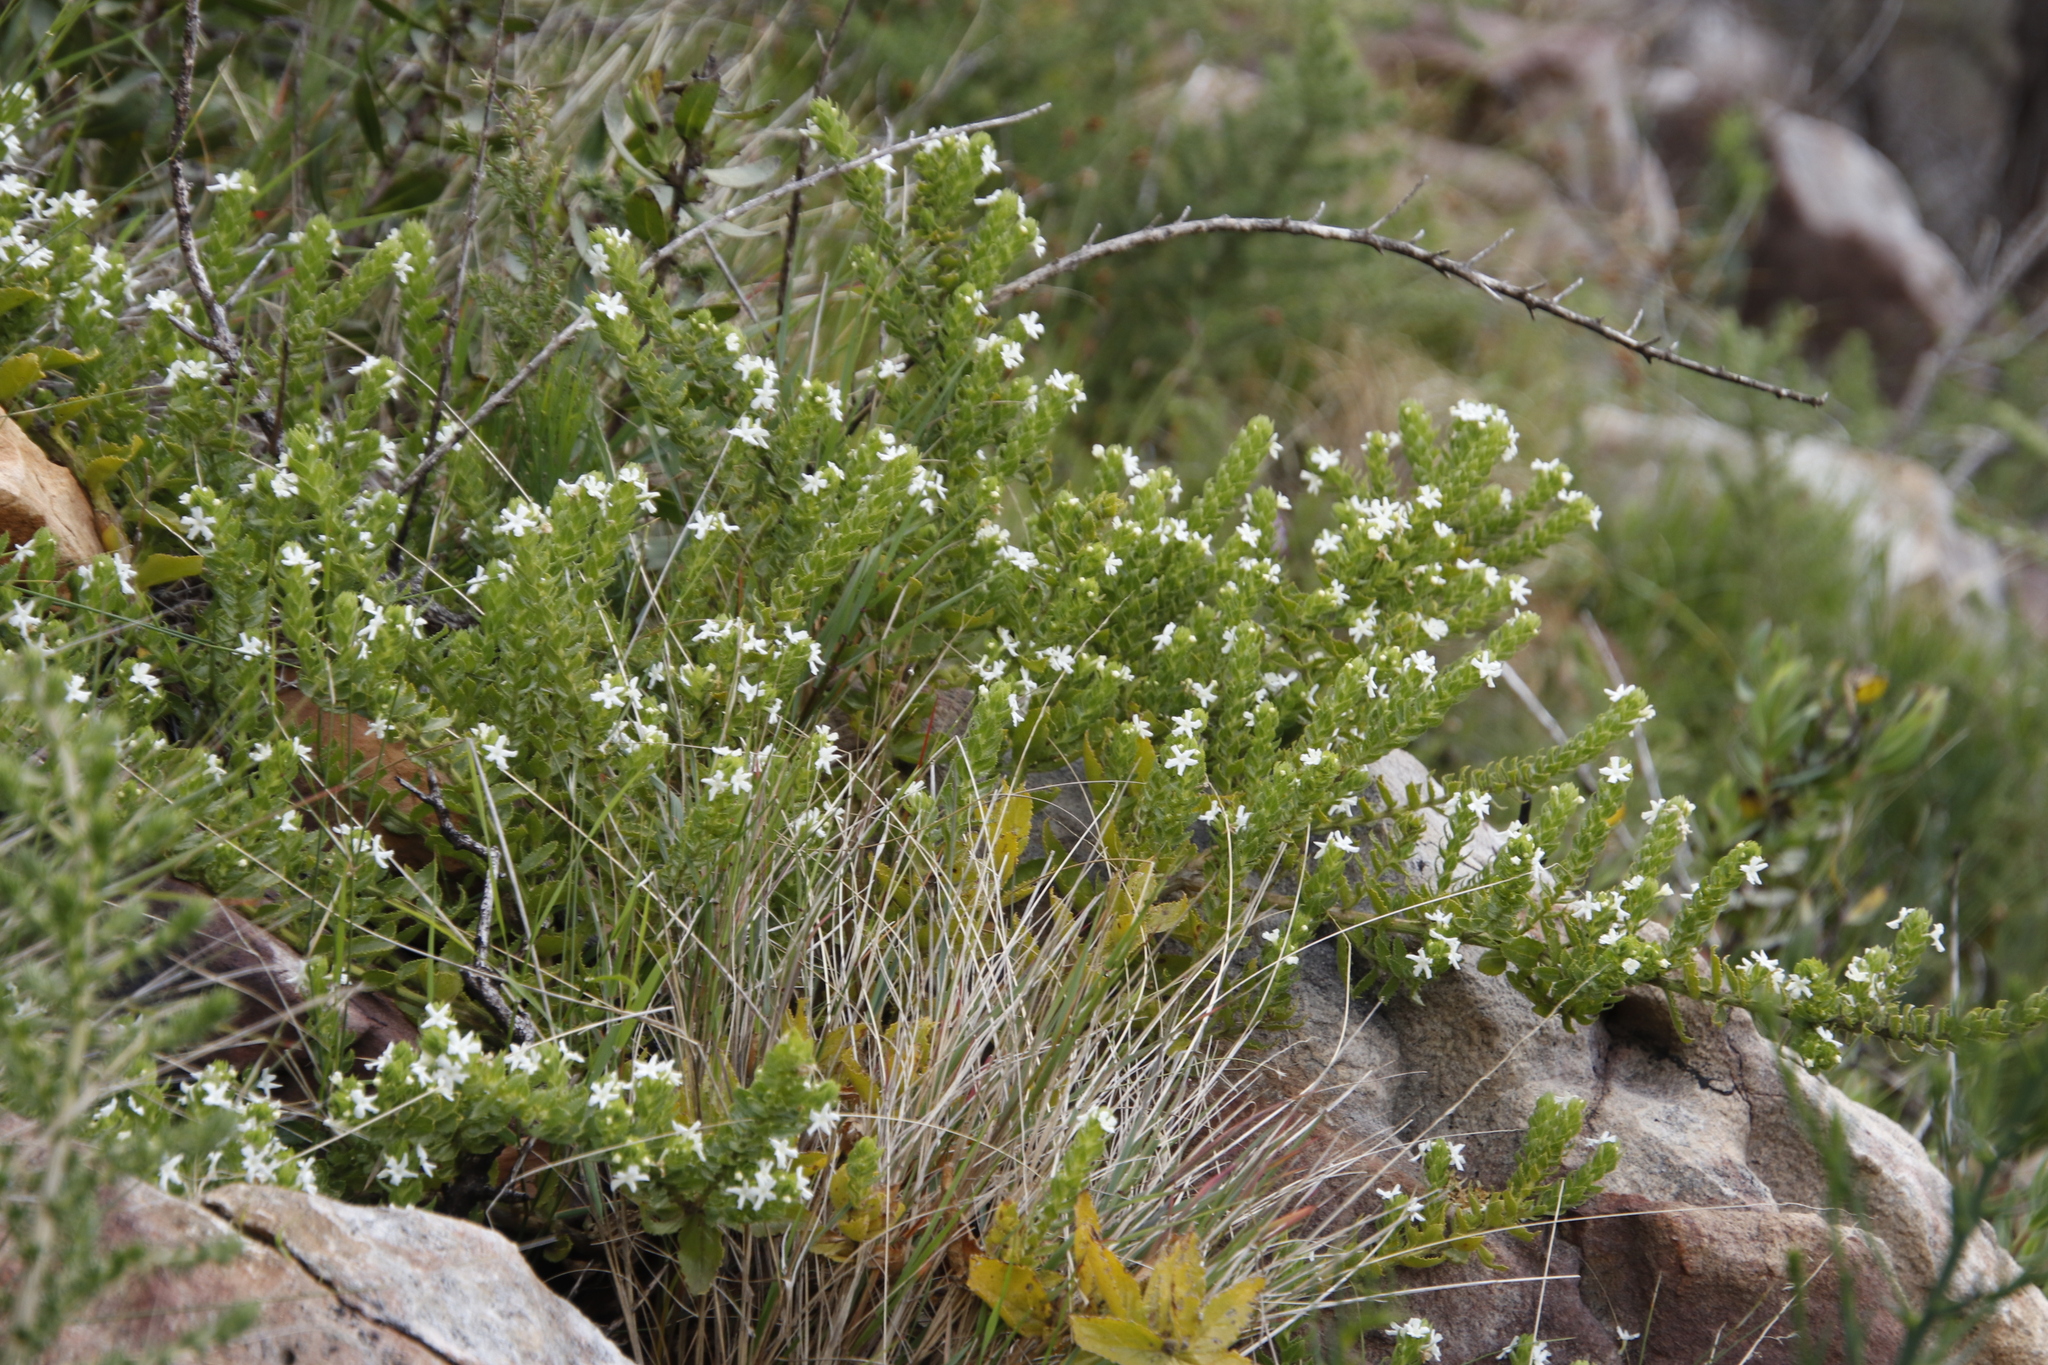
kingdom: Plantae
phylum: Tracheophyta
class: Magnoliopsida
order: Lamiales
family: Scrophulariaceae
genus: Oftia
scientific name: Oftia africana
